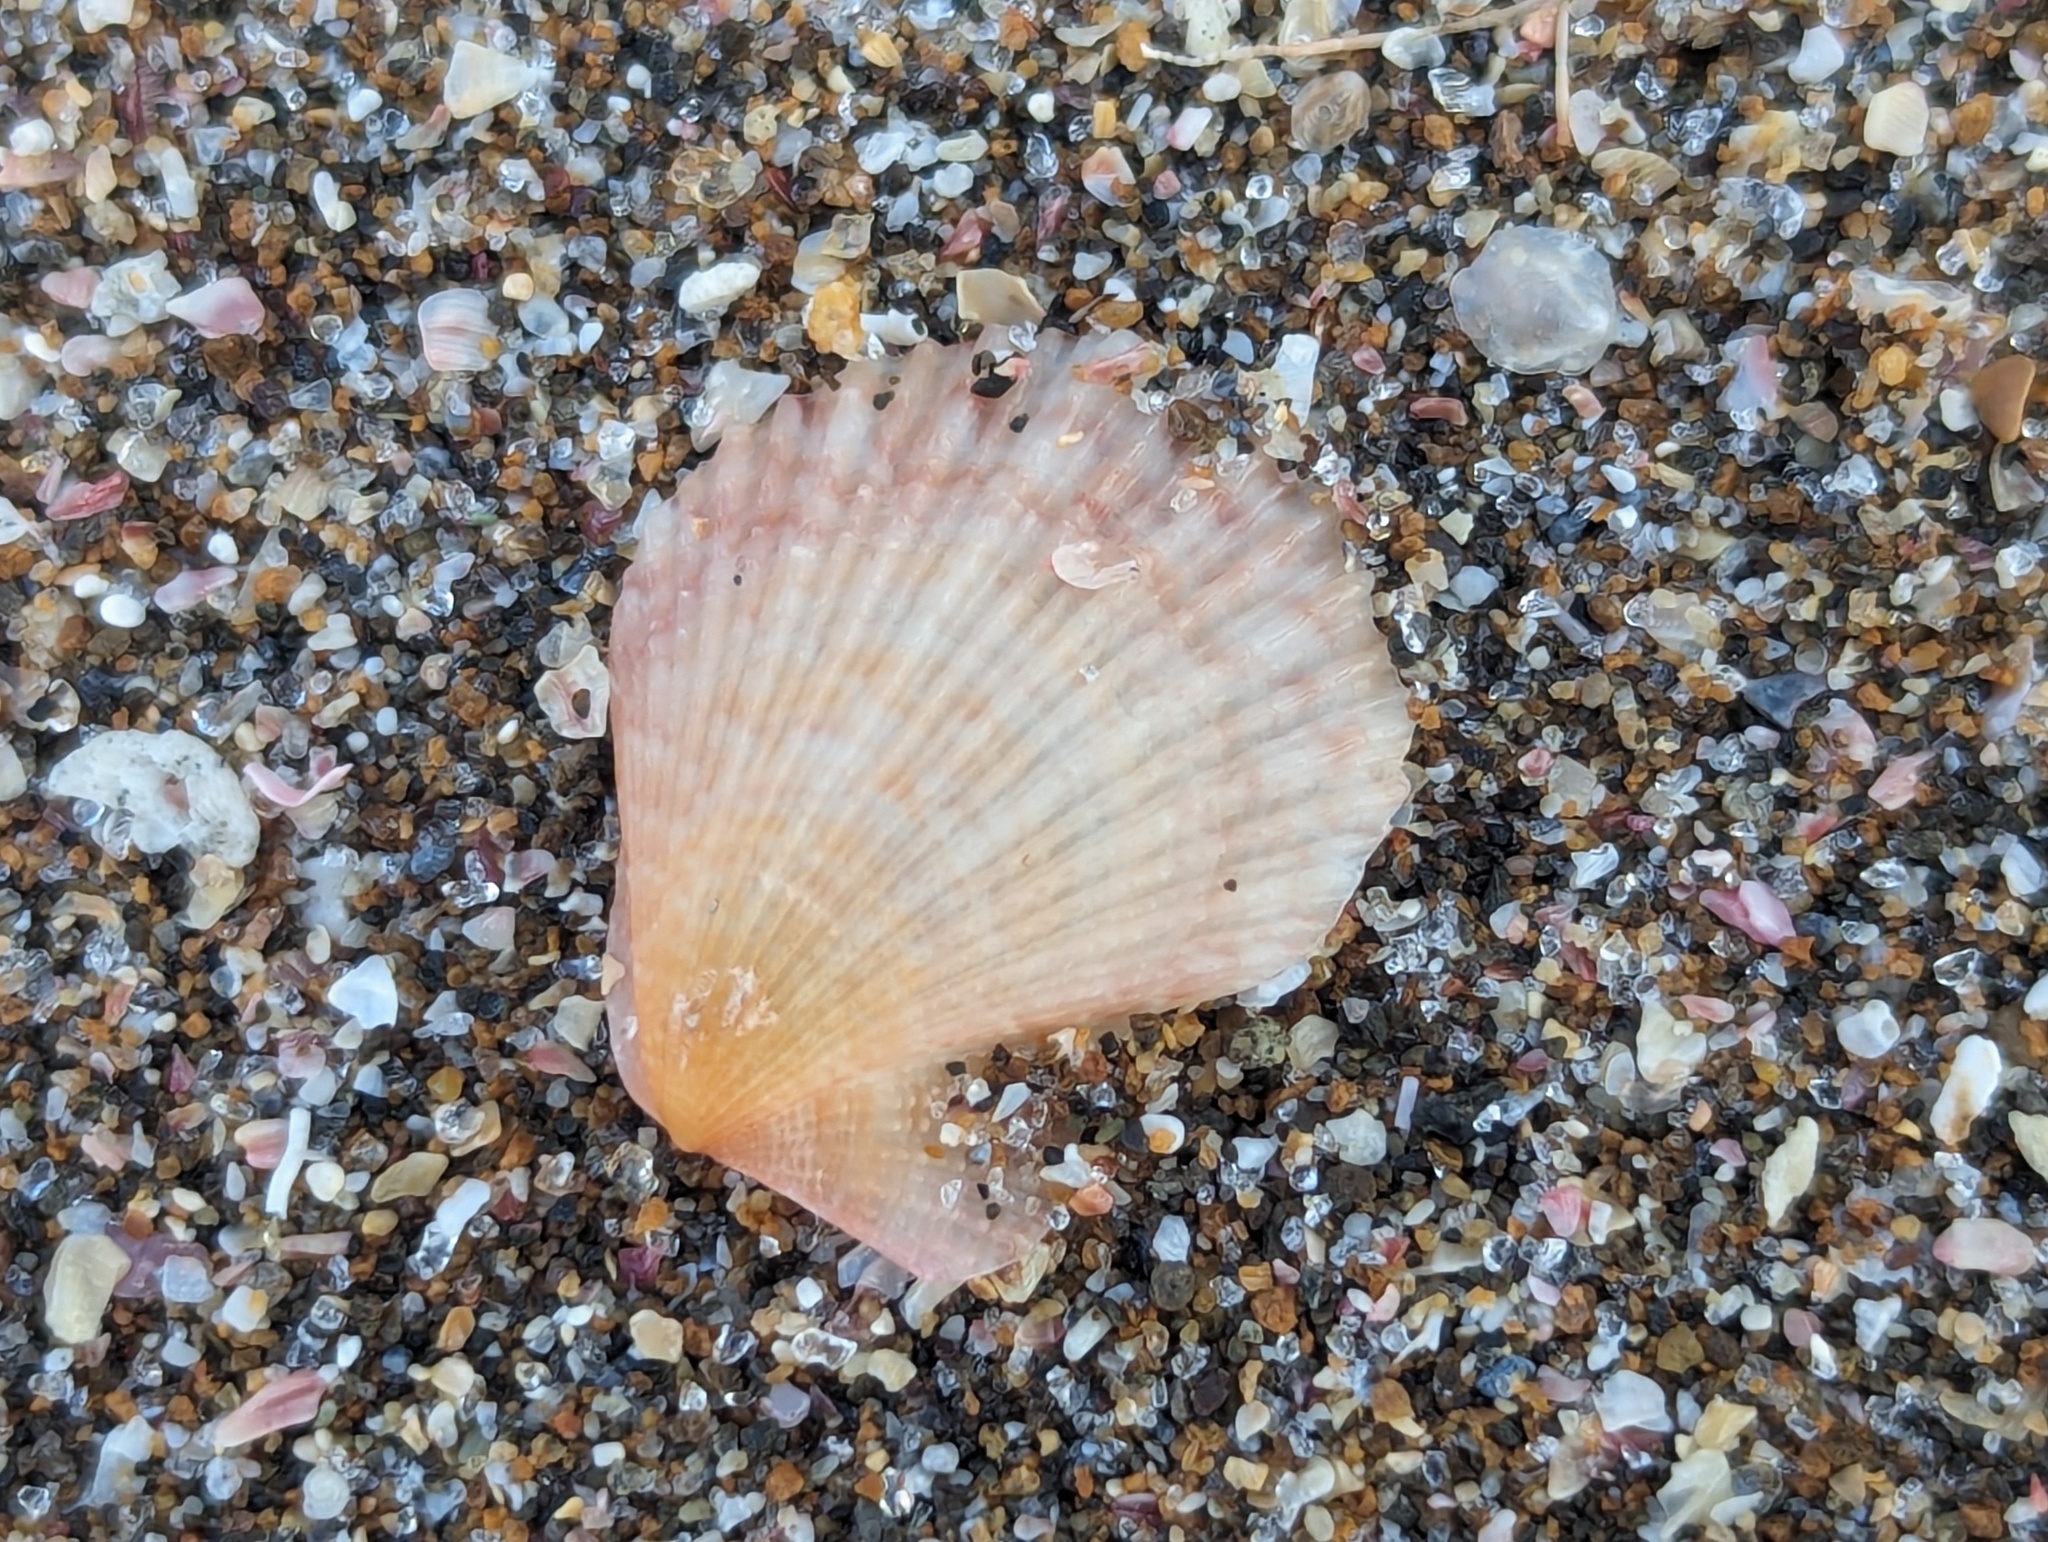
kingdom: Animalia
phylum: Mollusca
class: Bivalvia
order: Pectinida
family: Pectinidae
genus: Talochlamys
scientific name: Talochlamys zelandiae
